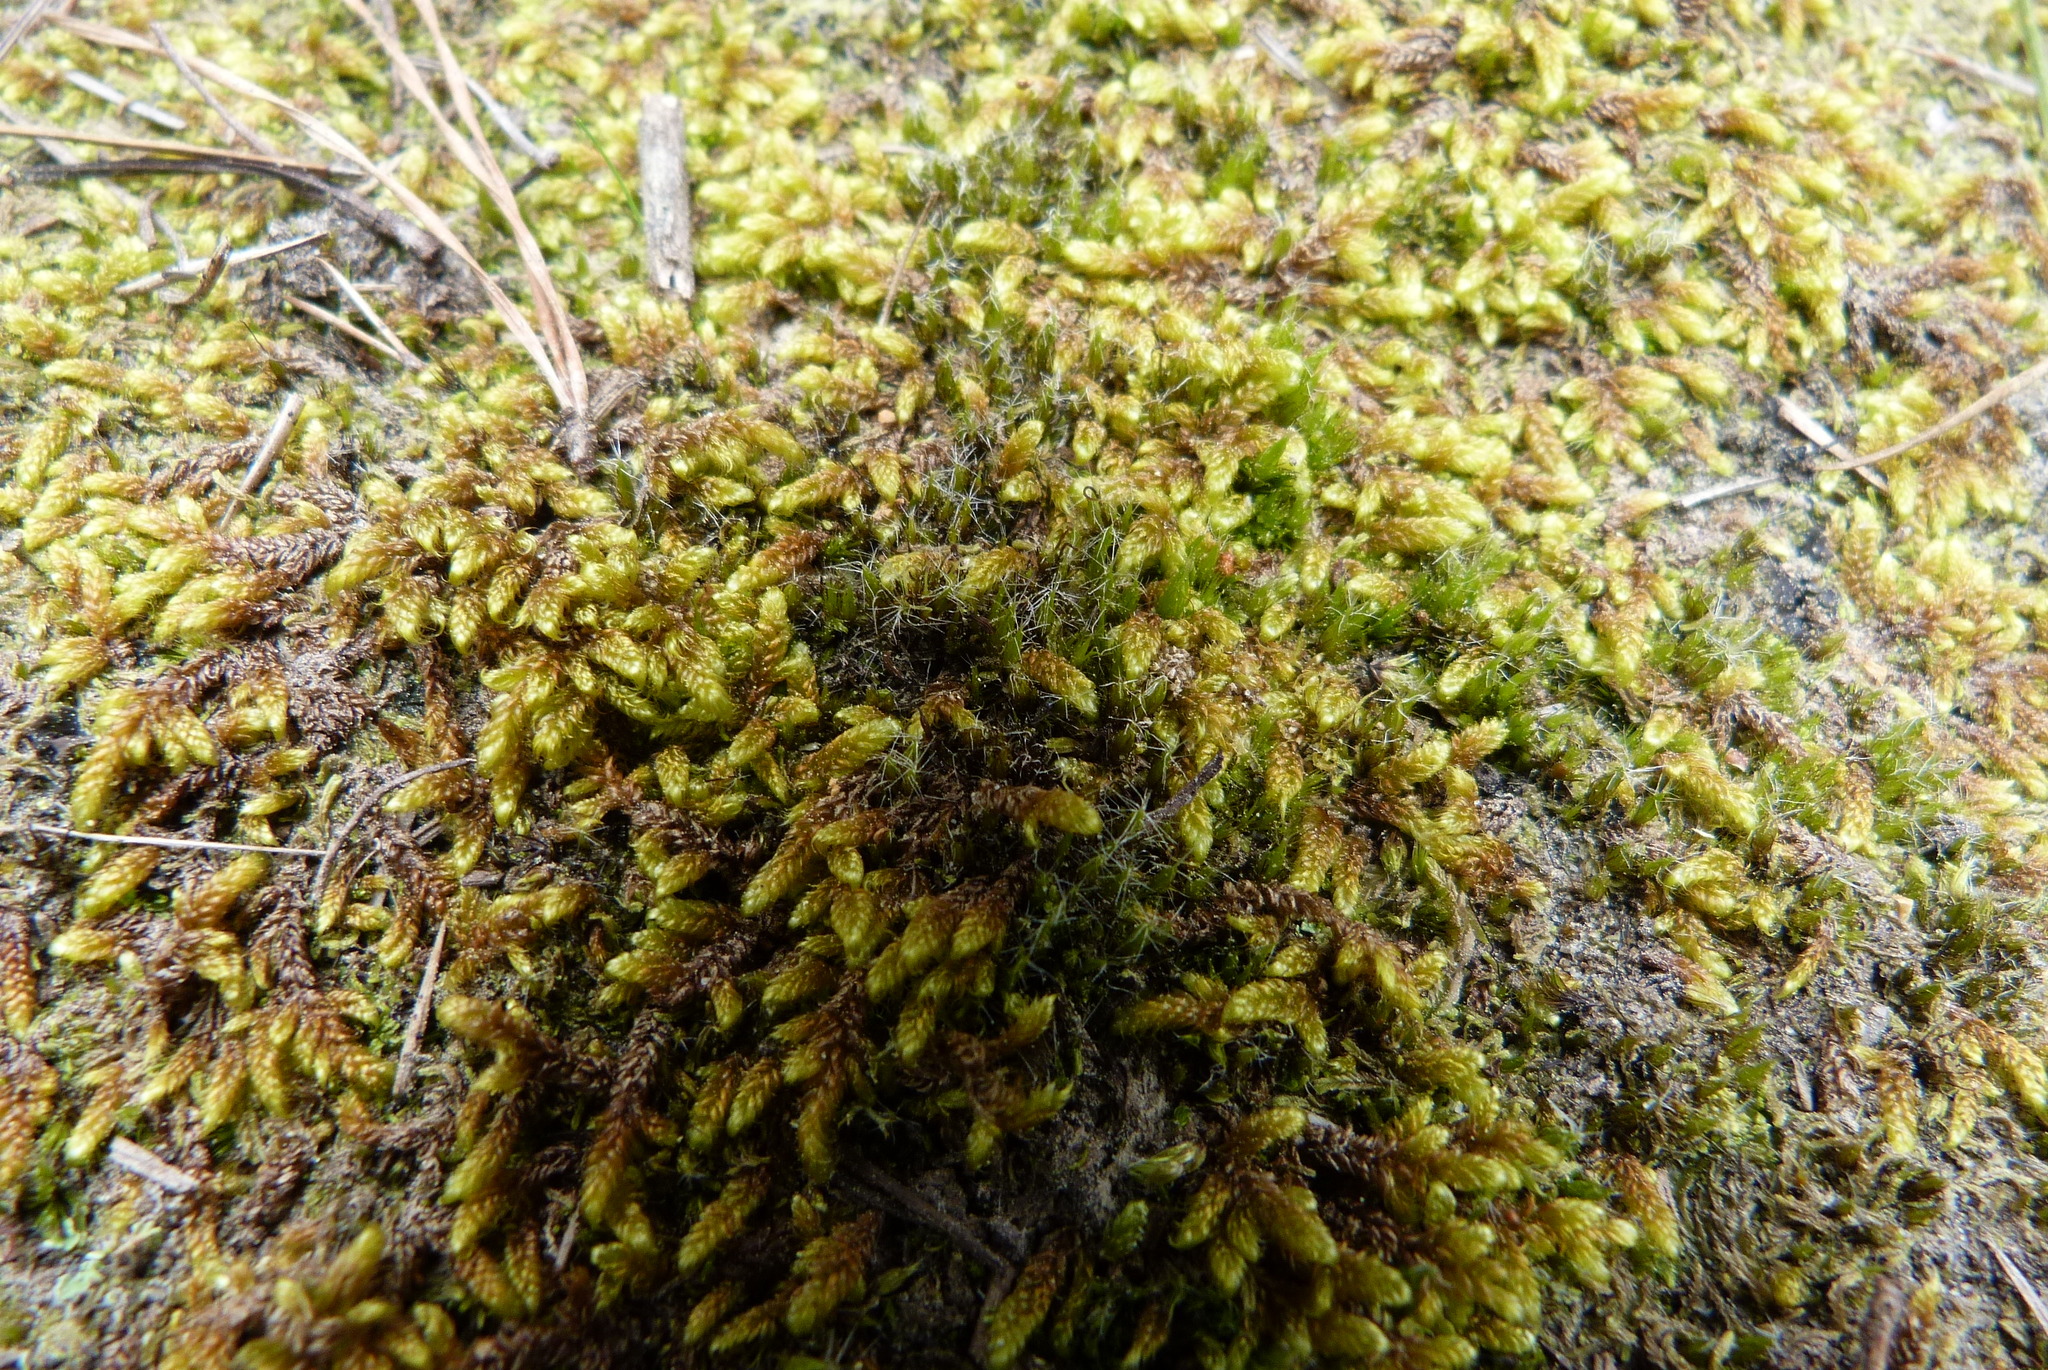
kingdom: Plantae
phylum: Bryophyta
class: Bryopsida
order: Hypnales
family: Hypnaceae
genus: Hypnum
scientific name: Hypnum cupressiforme
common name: Cypress-leaved plait-moss
